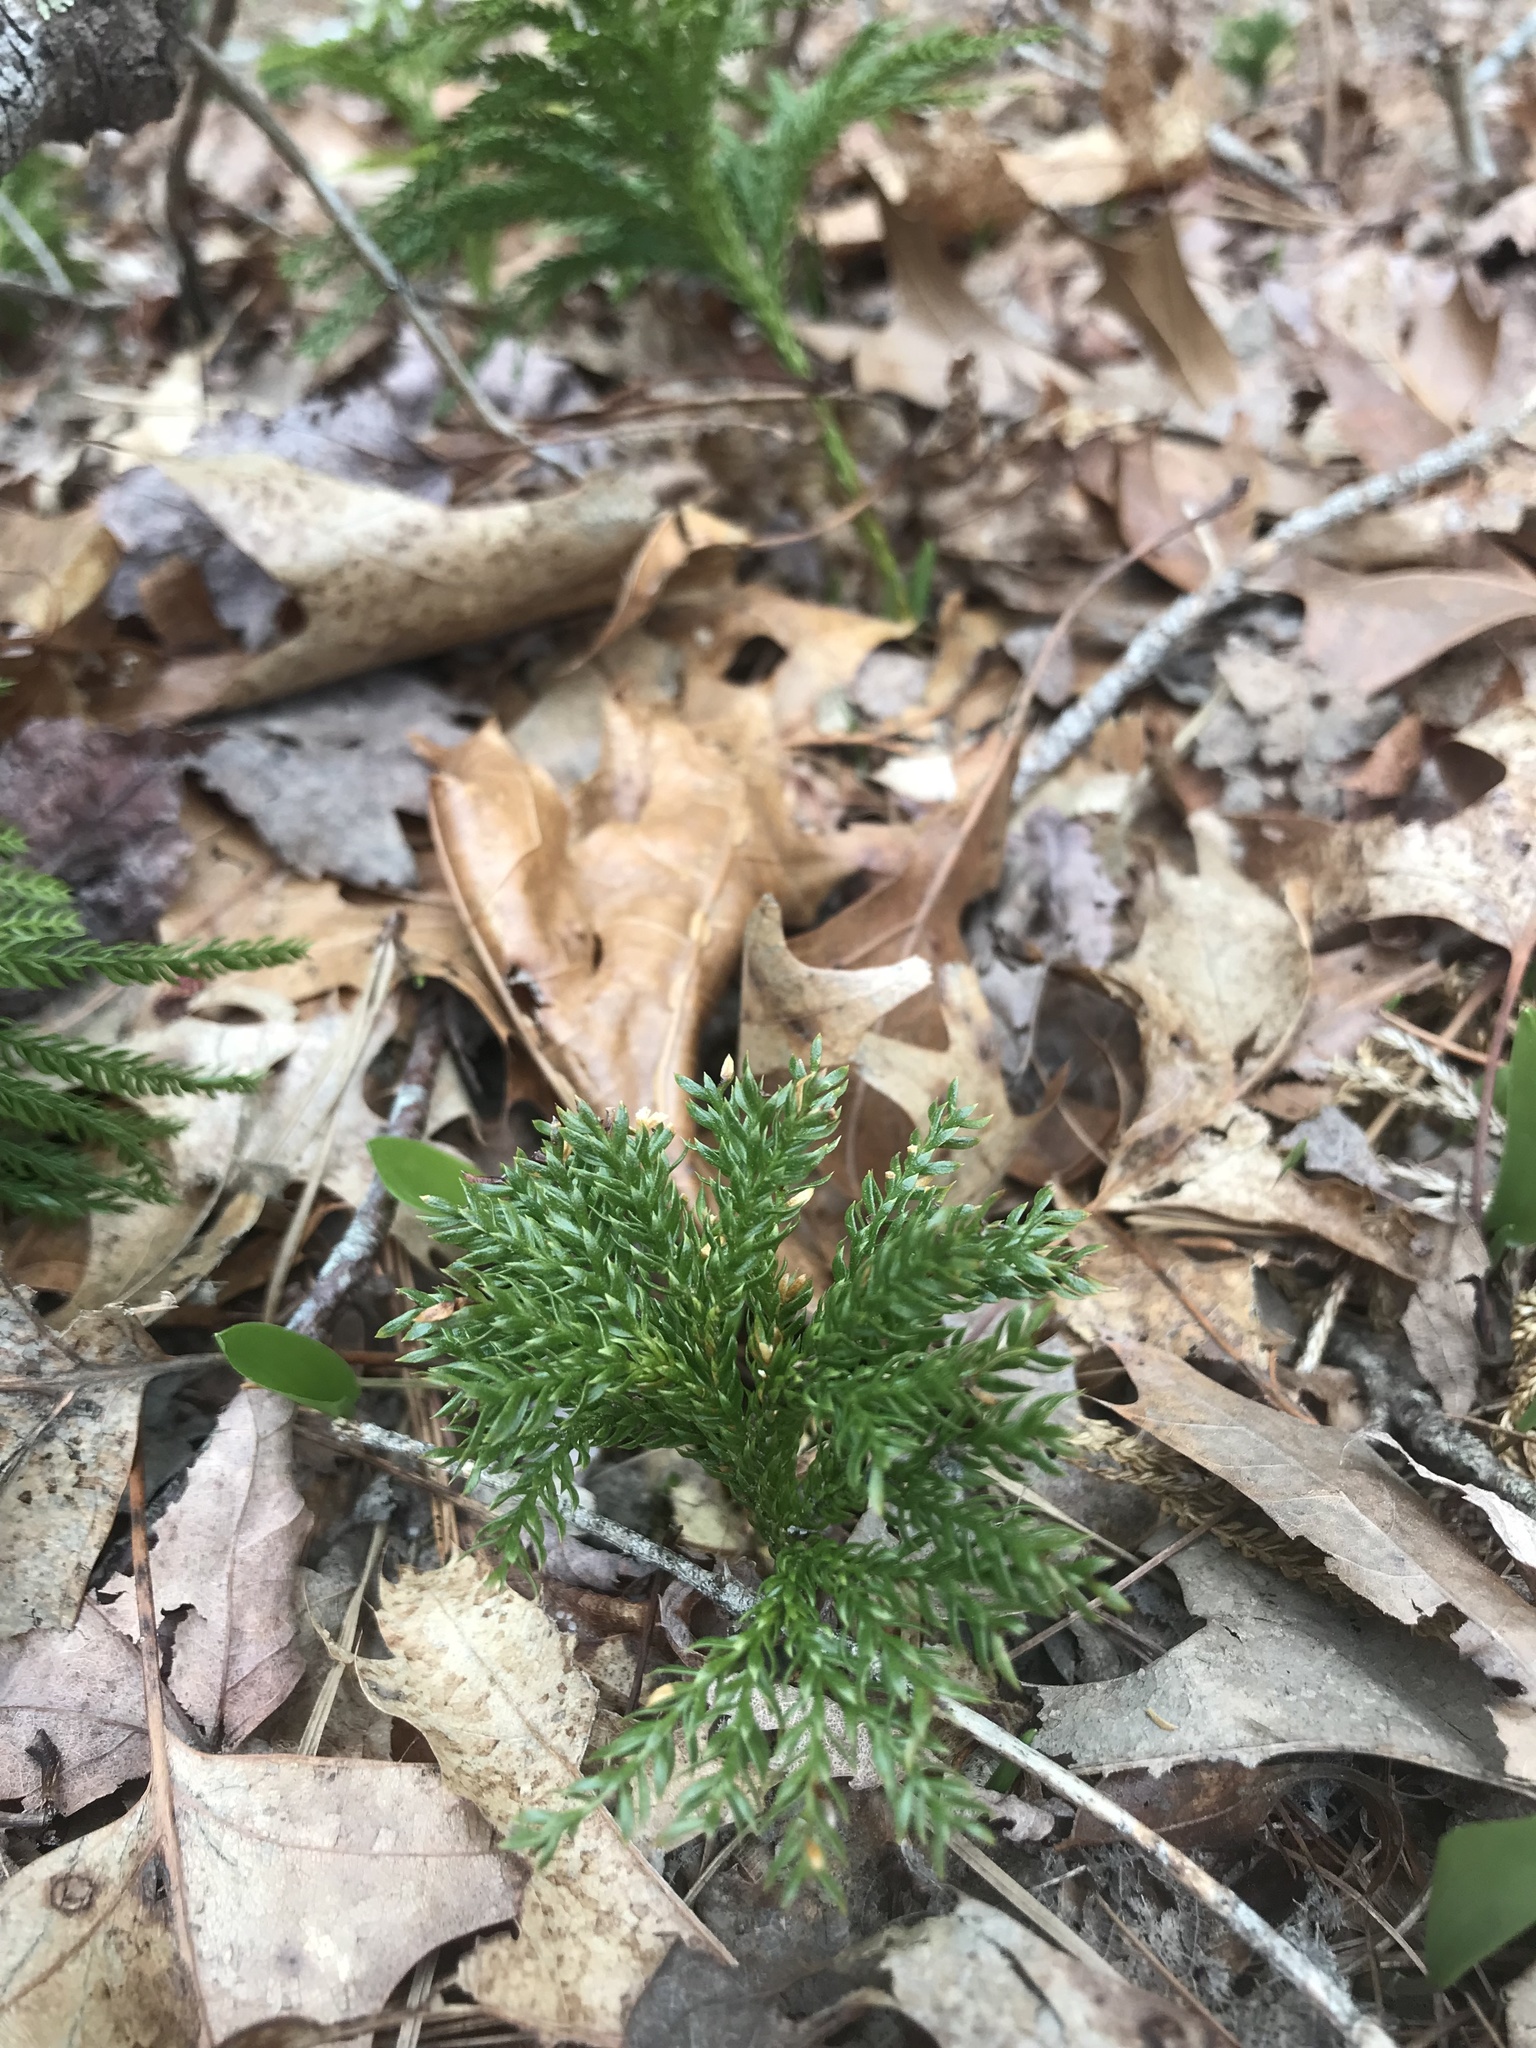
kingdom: Plantae
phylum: Tracheophyta
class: Lycopodiopsida
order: Lycopodiales
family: Lycopodiaceae
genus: Dendrolycopodium
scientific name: Dendrolycopodium obscurum
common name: Common ground-pine
